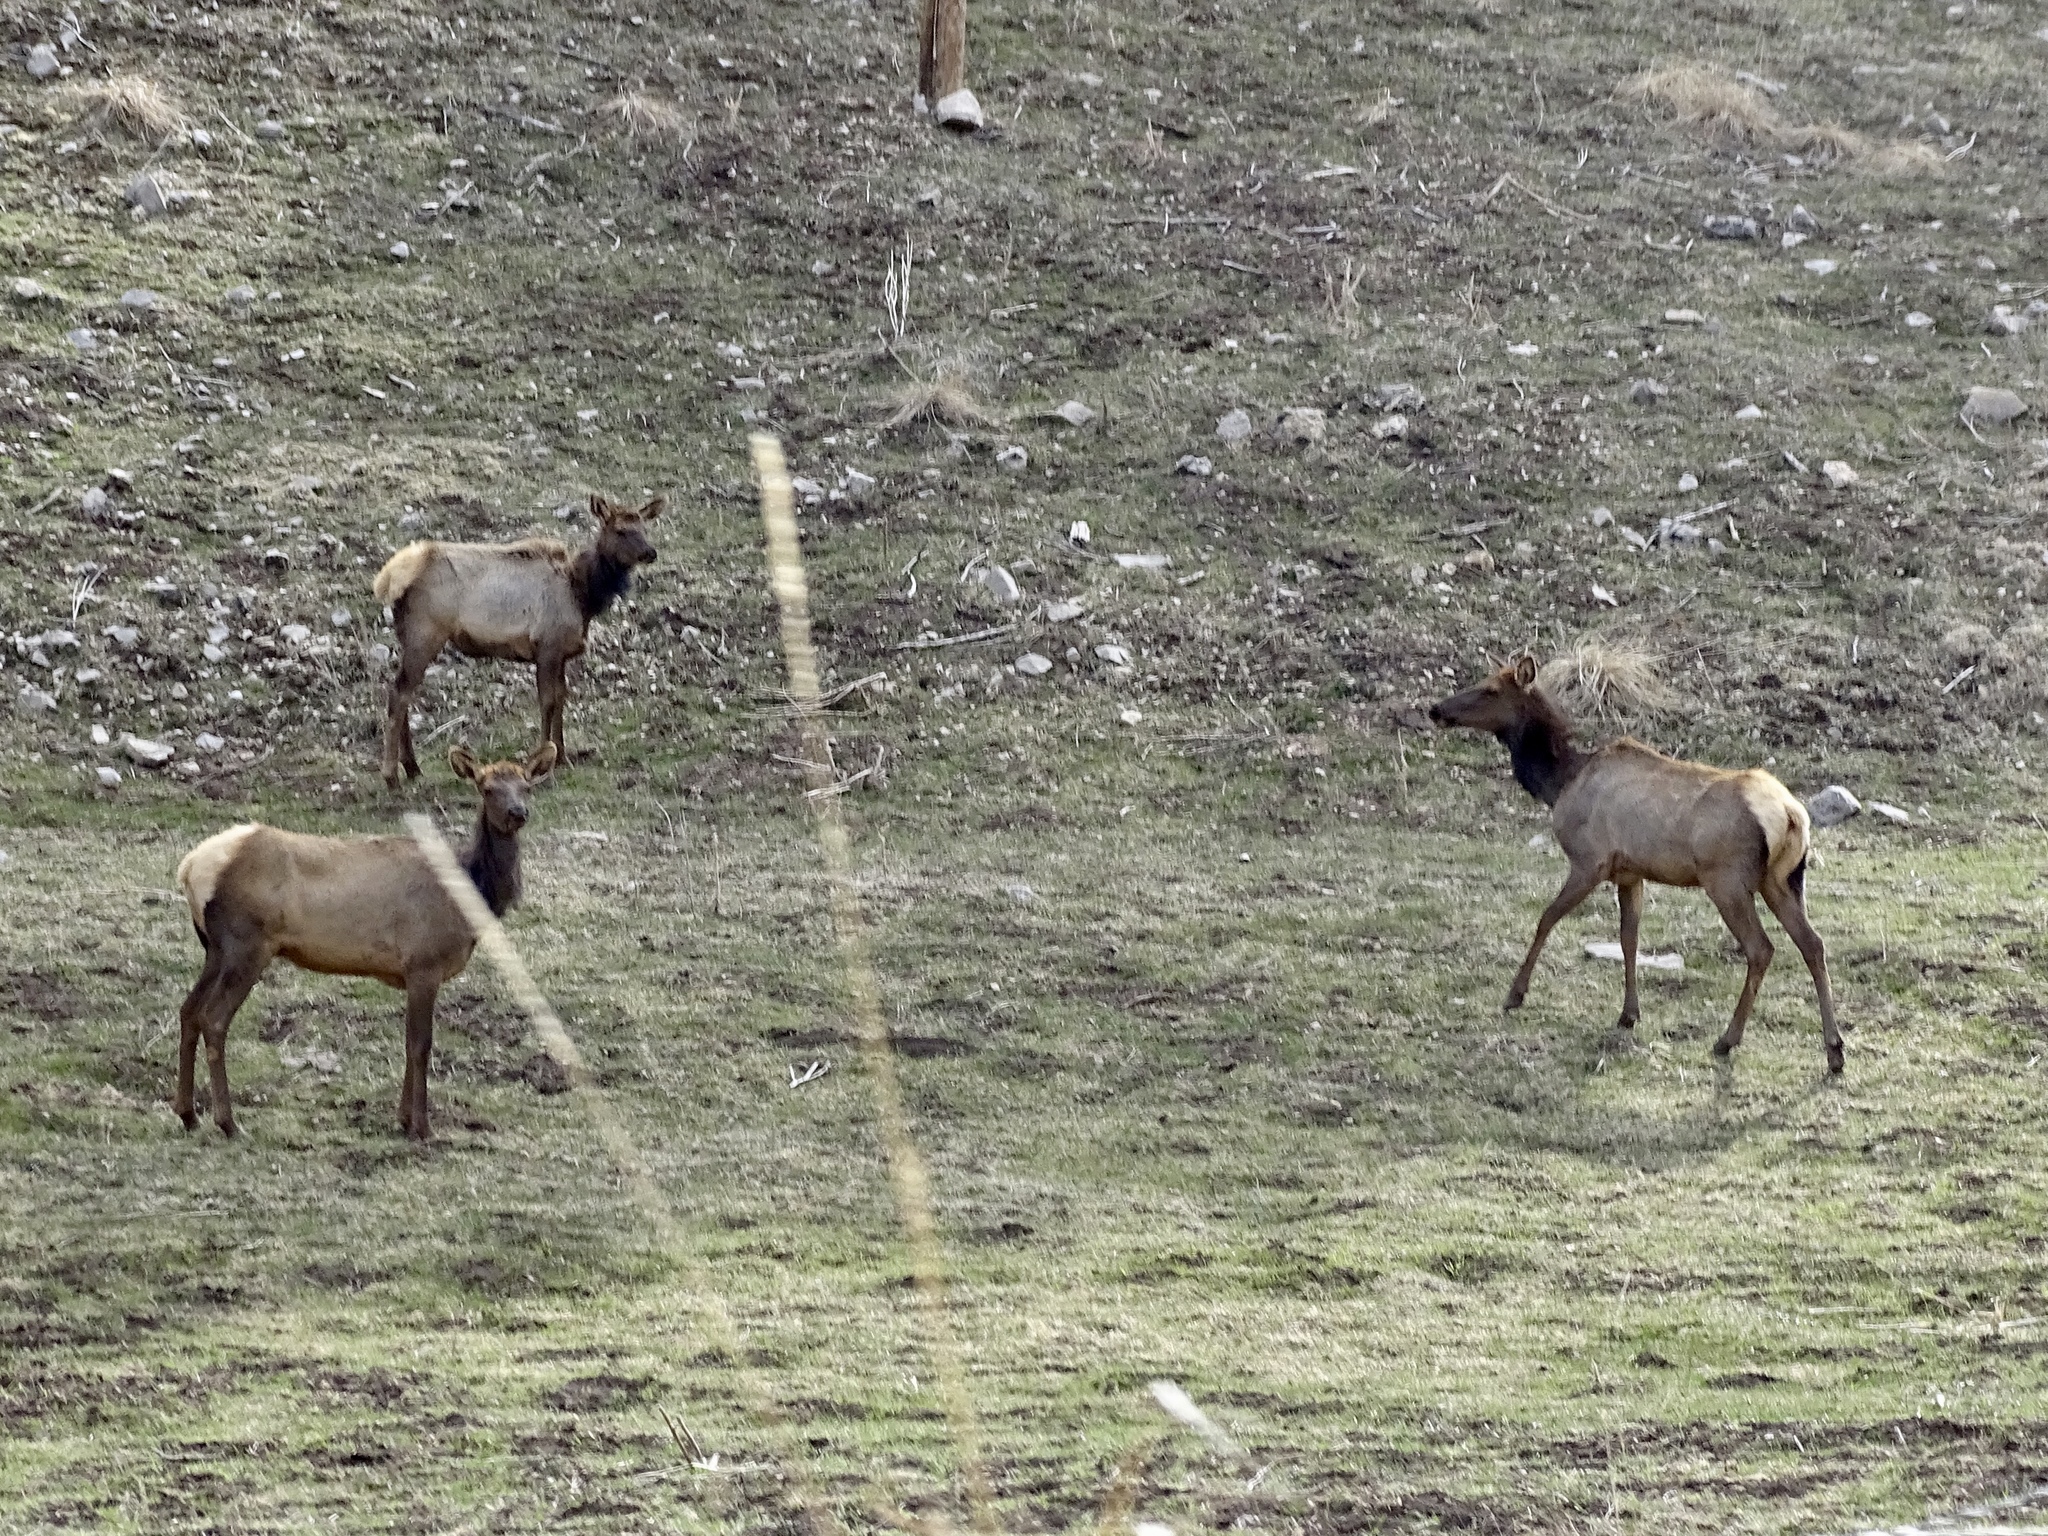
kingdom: Animalia
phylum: Chordata
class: Mammalia
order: Artiodactyla
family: Cervidae
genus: Cervus
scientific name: Cervus elaphus
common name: Red deer
